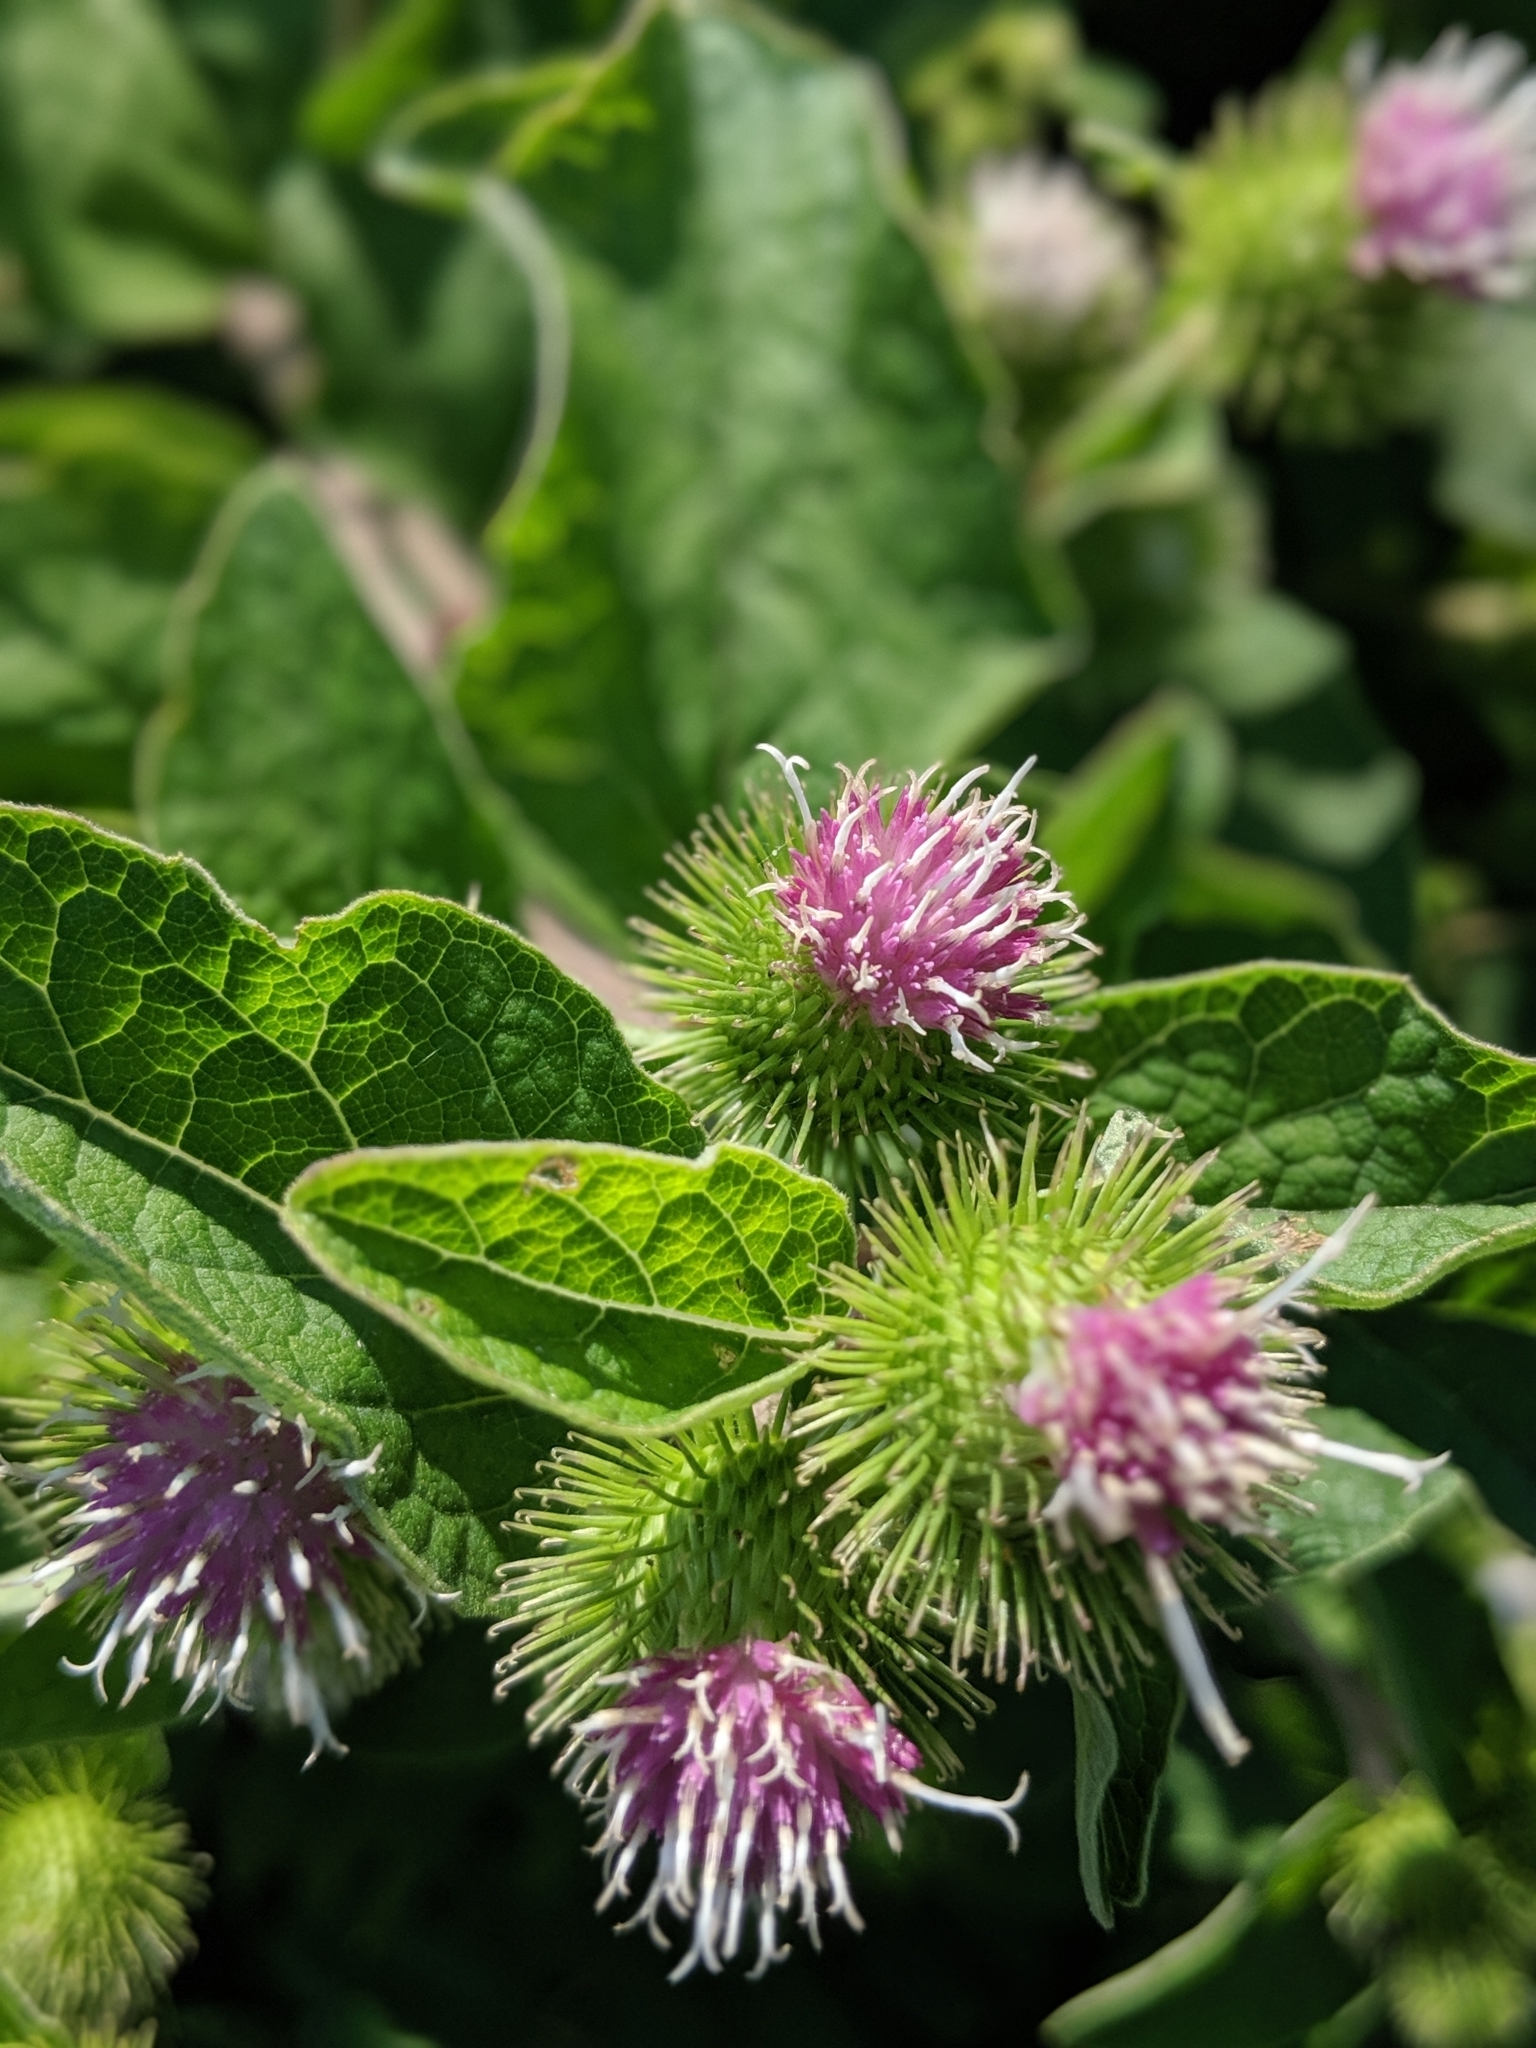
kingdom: Plantae
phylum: Tracheophyta
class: Magnoliopsida
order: Asterales
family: Asteraceae
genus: Arctium
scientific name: Arctium minus
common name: Lesser burdock
